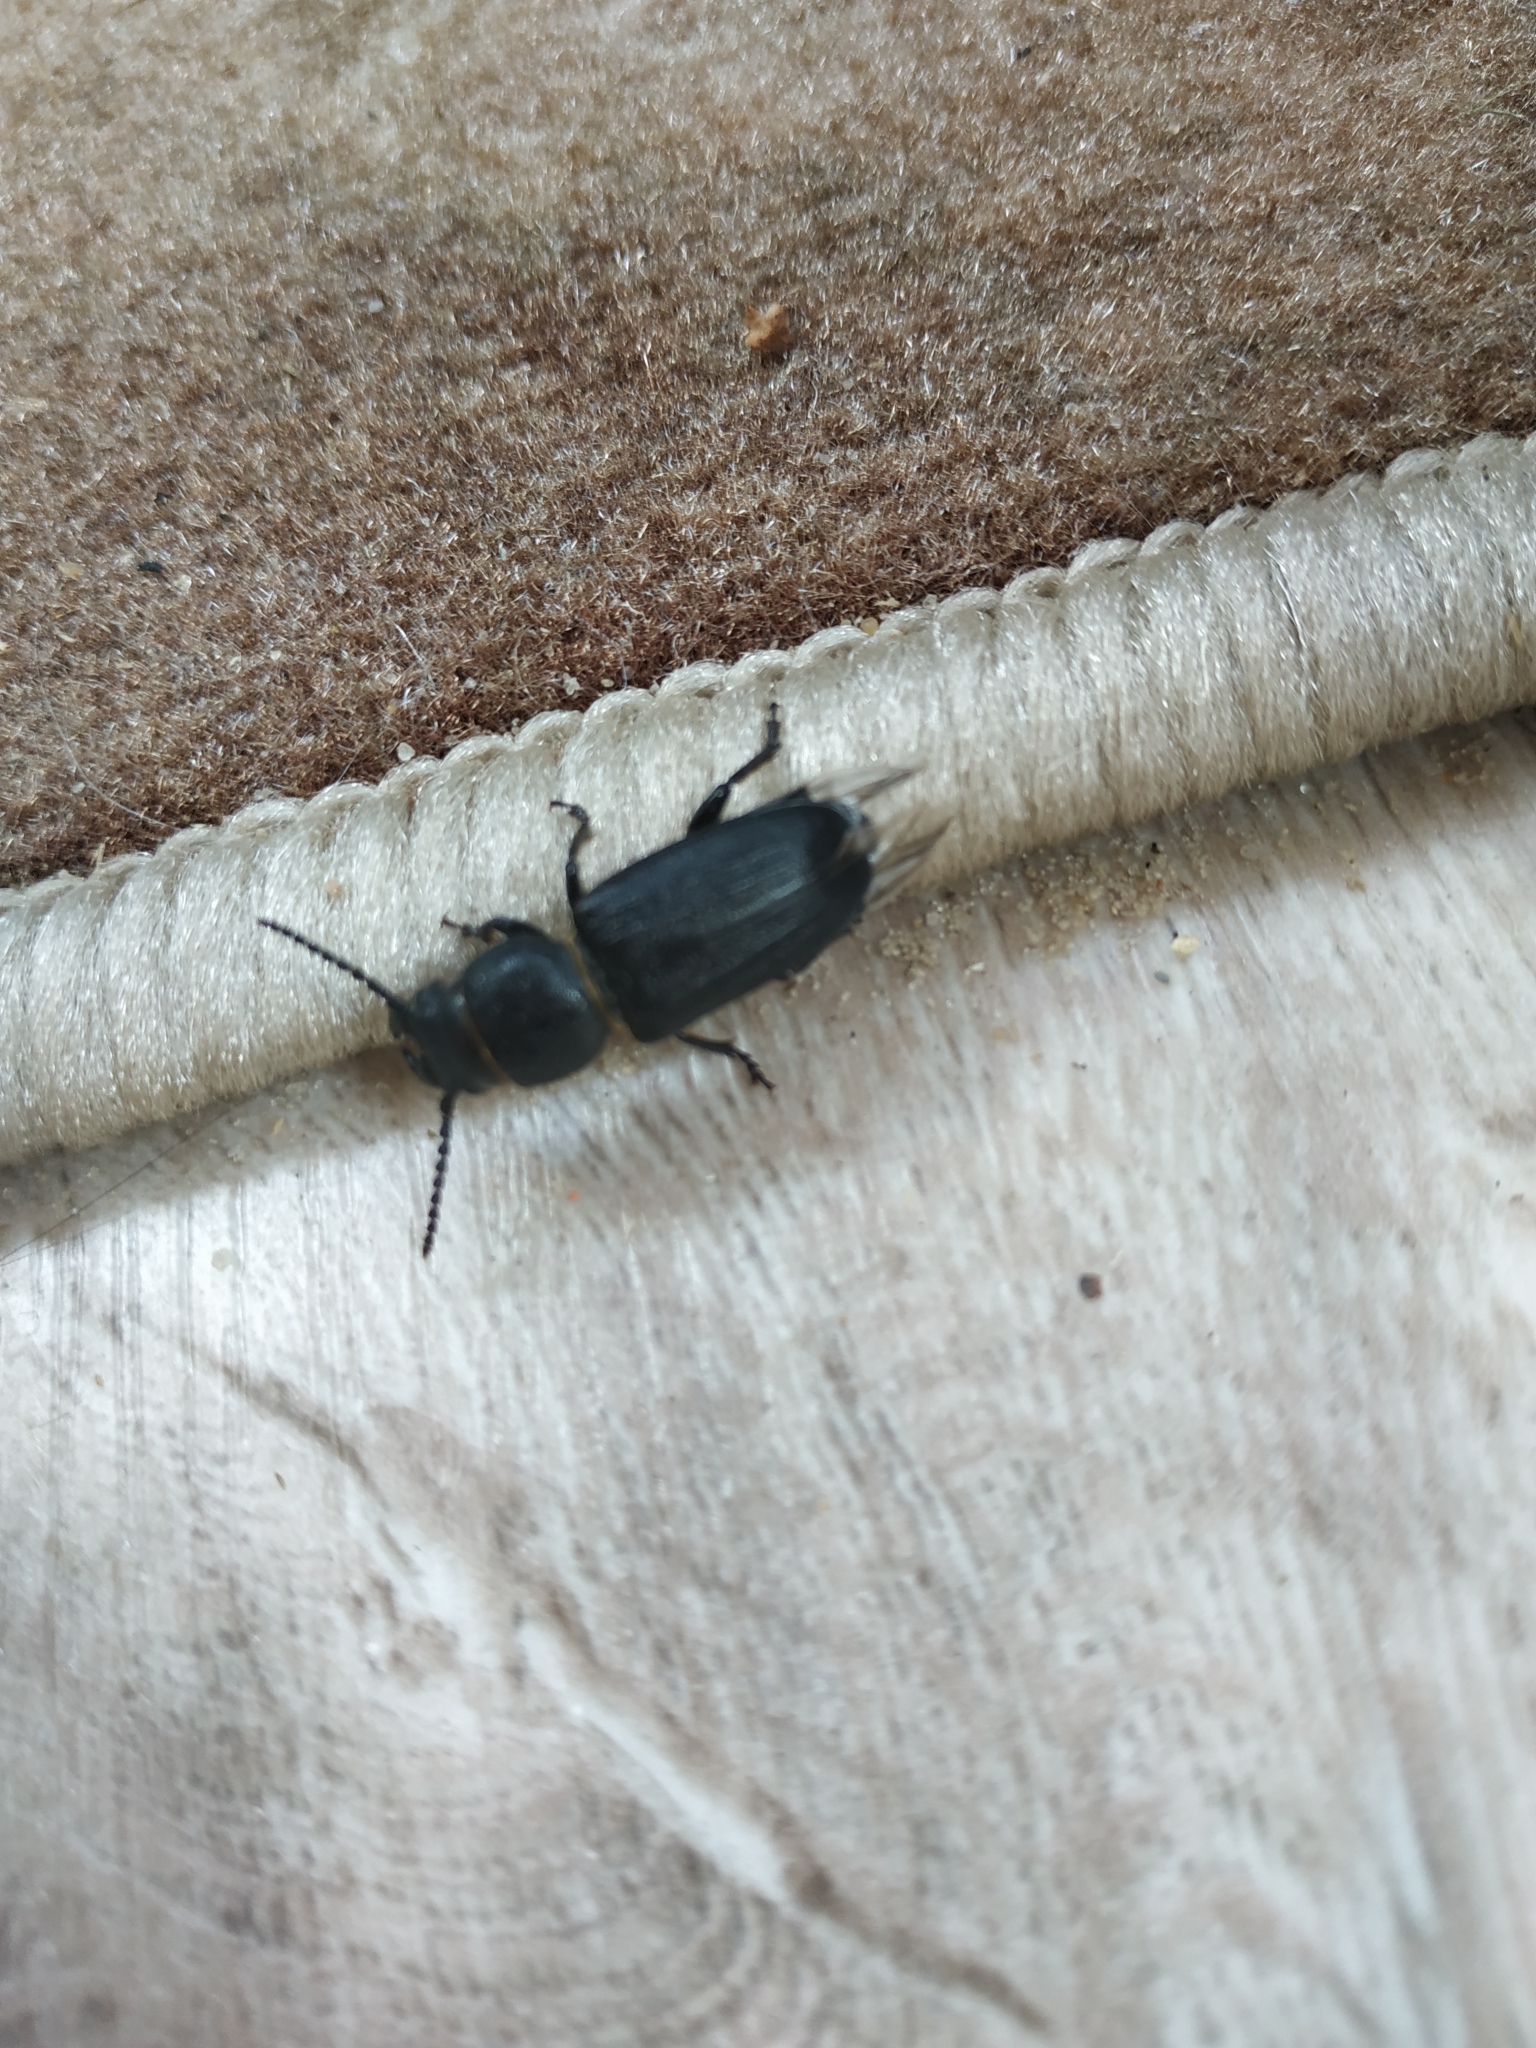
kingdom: Animalia
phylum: Arthropoda
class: Insecta
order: Coleoptera
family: Cerambycidae
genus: Spondylis
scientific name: Spondylis buprestoides
